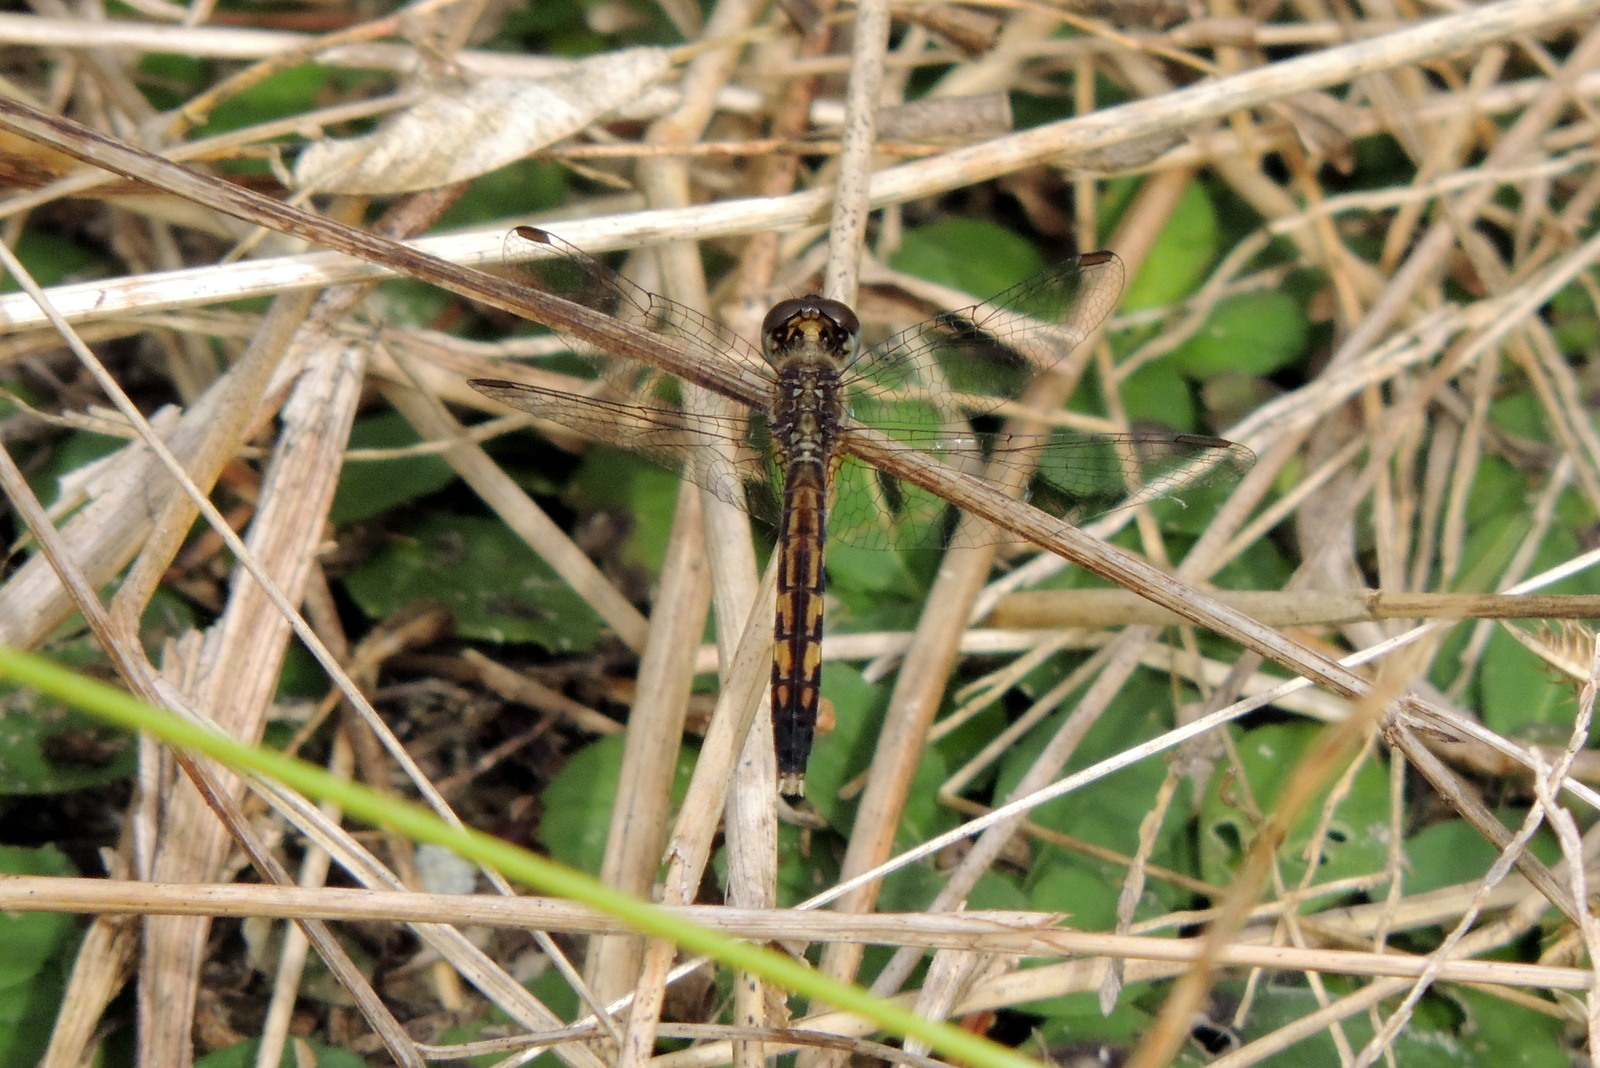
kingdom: Animalia
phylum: Arthropoda
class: Insecta
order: Odonata
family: Libellulidae
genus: Erythrodiplax
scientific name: Erythrodiplax minuscula
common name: Little blue dragonlet
